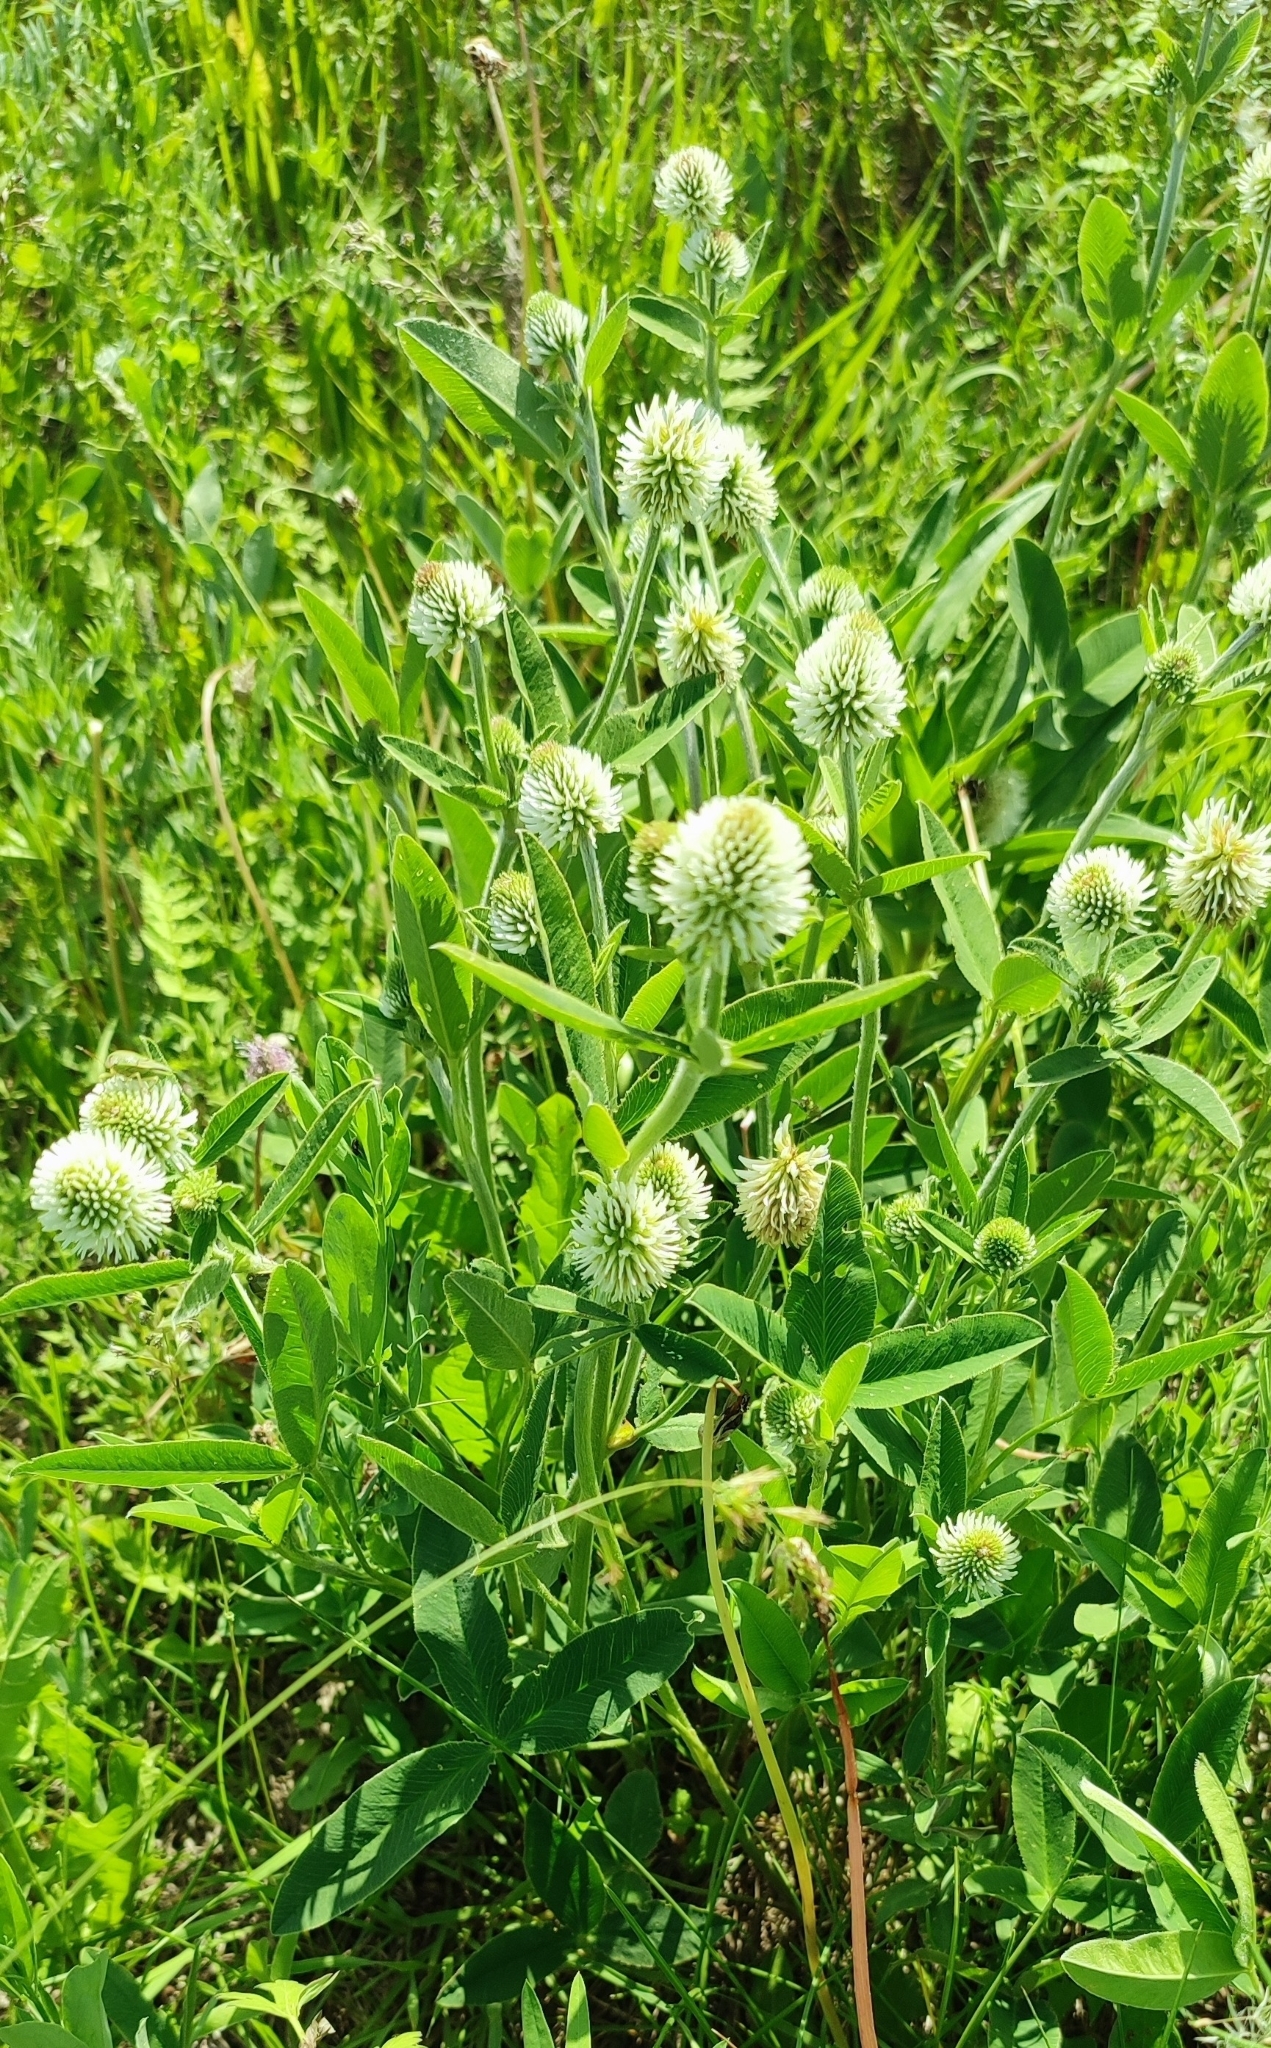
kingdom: Plantae
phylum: Tracheophyta
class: Magnoliopsida
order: Fabales
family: Fabaceae
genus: Trifolium
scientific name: Trifolium montanum
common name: Mountain clover
